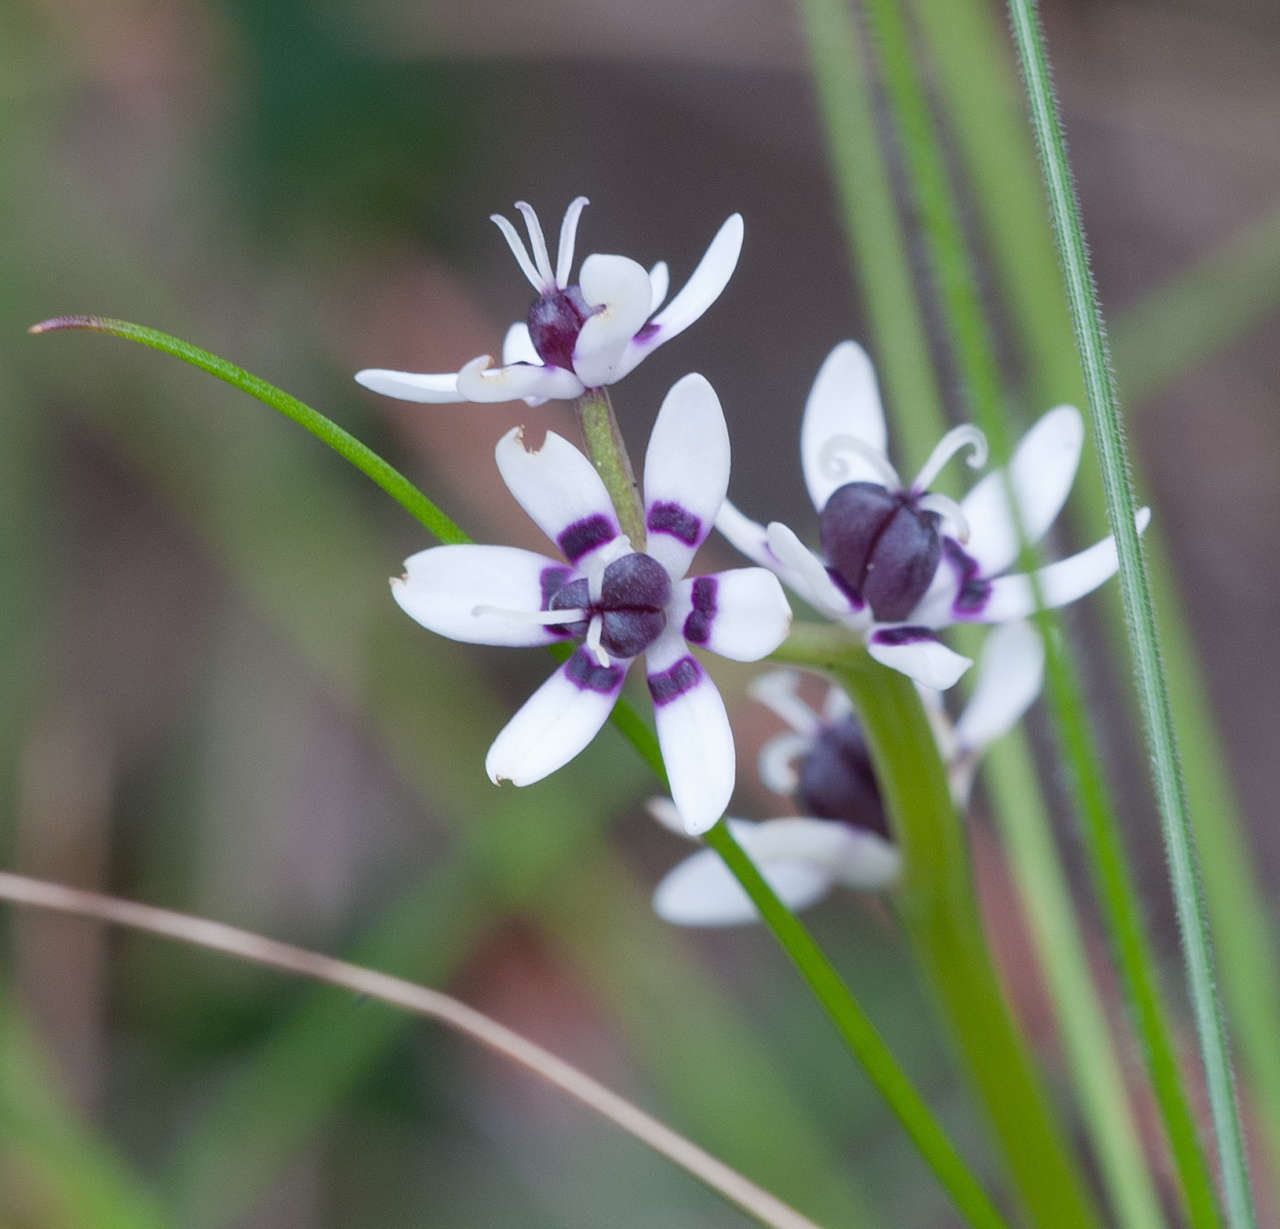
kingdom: Plantae
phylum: Tracheophyta
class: Liliopsida
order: Liliales
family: Colchicaceae
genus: Wurmbea
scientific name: Wurmbea dioica
